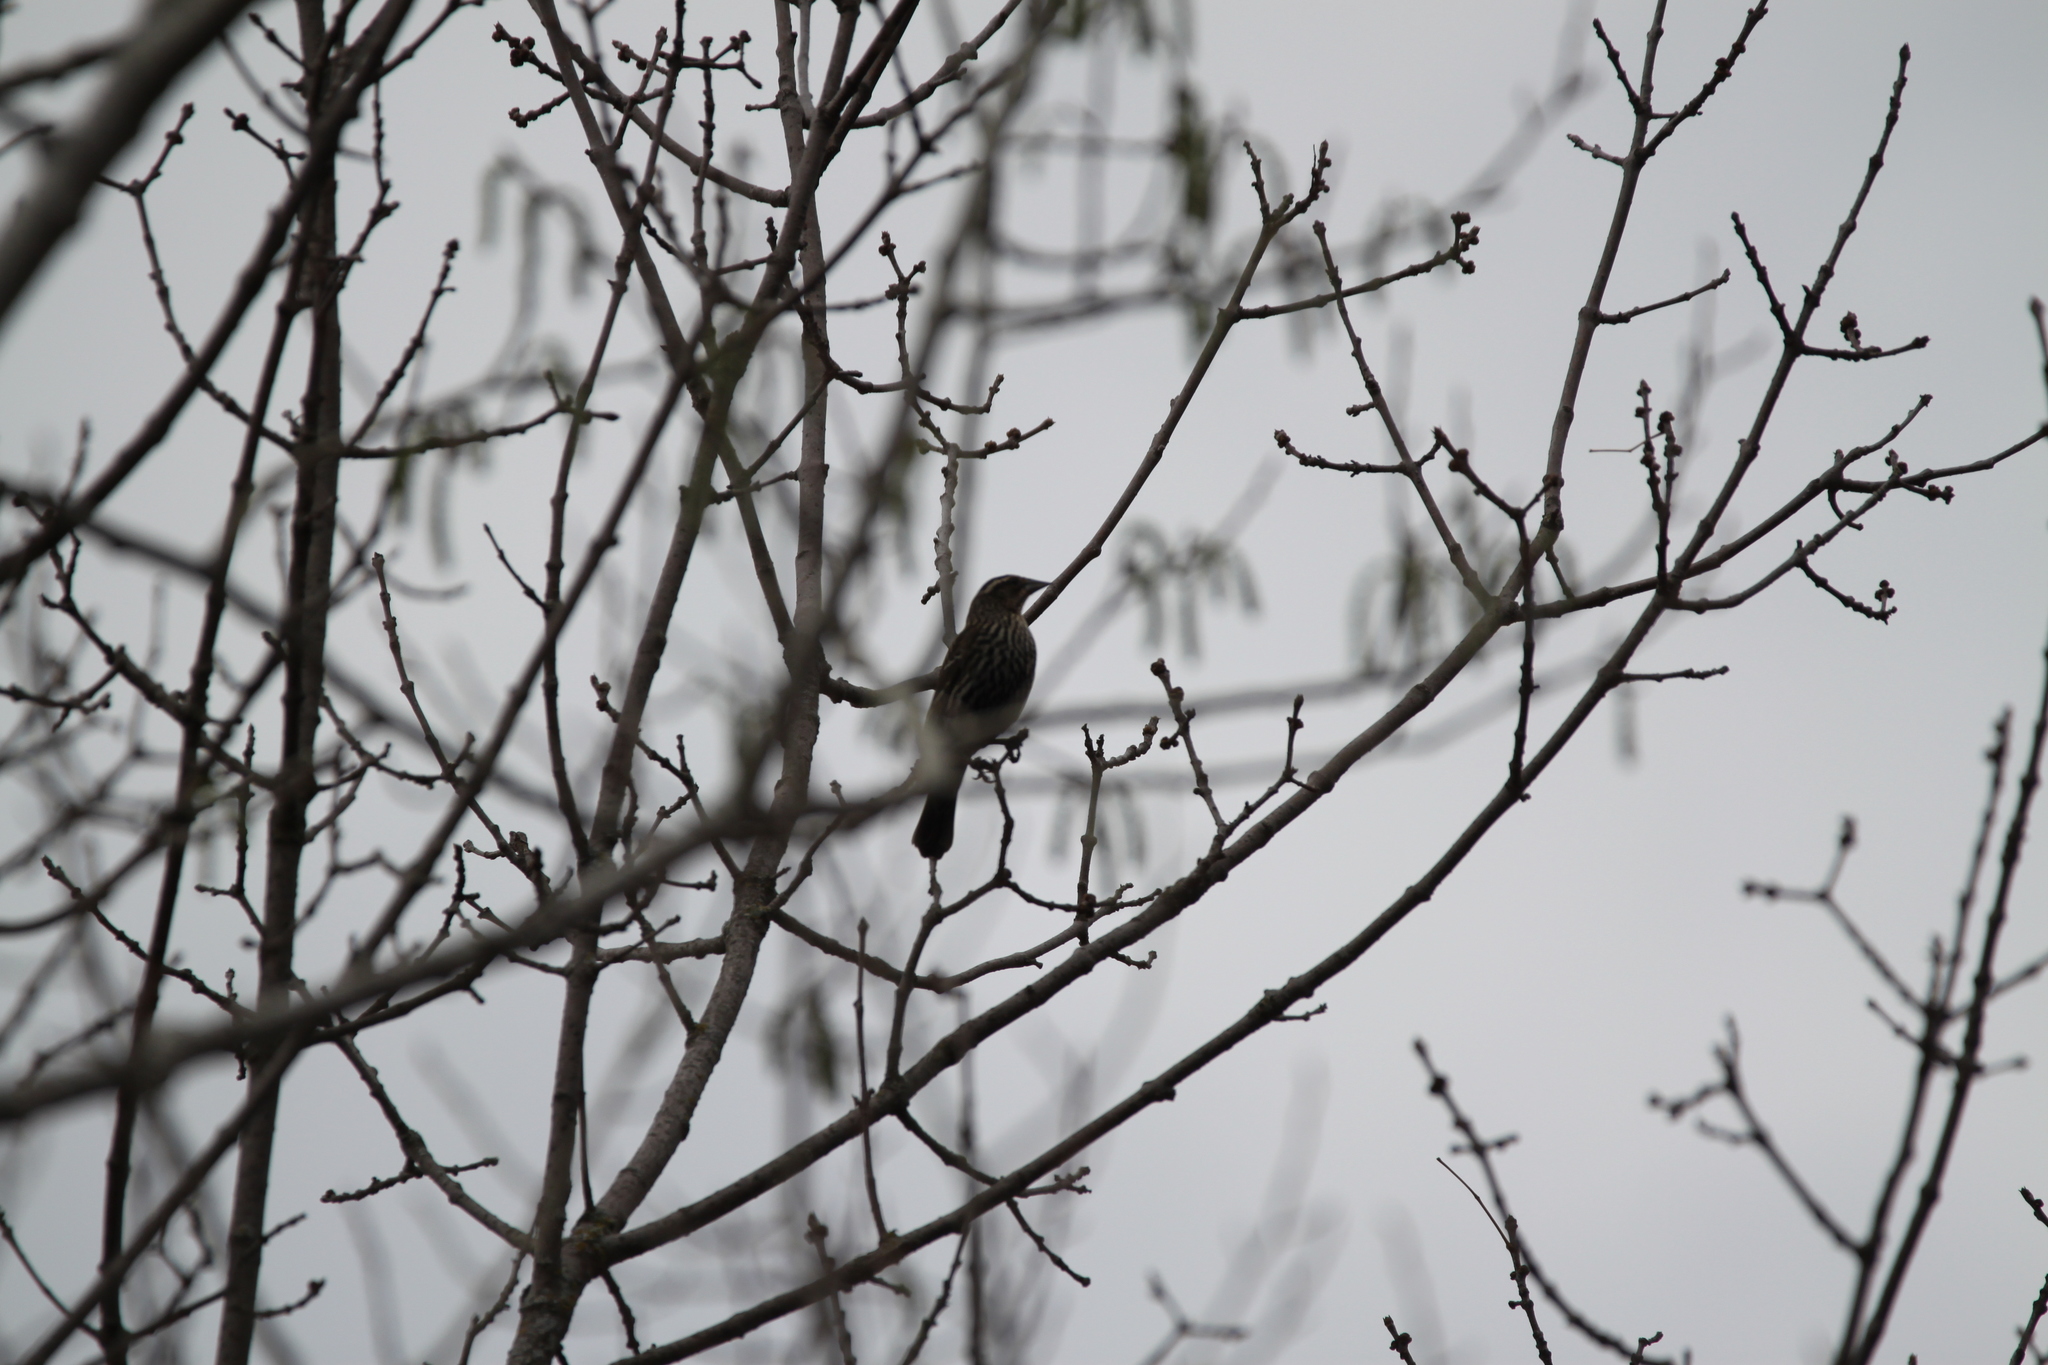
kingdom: Animalia
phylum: Chordata
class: Aves
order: Passeriformes
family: Icteridae
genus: Agelaius
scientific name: Agelaius phoeniceus
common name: Red-winged blackbird
